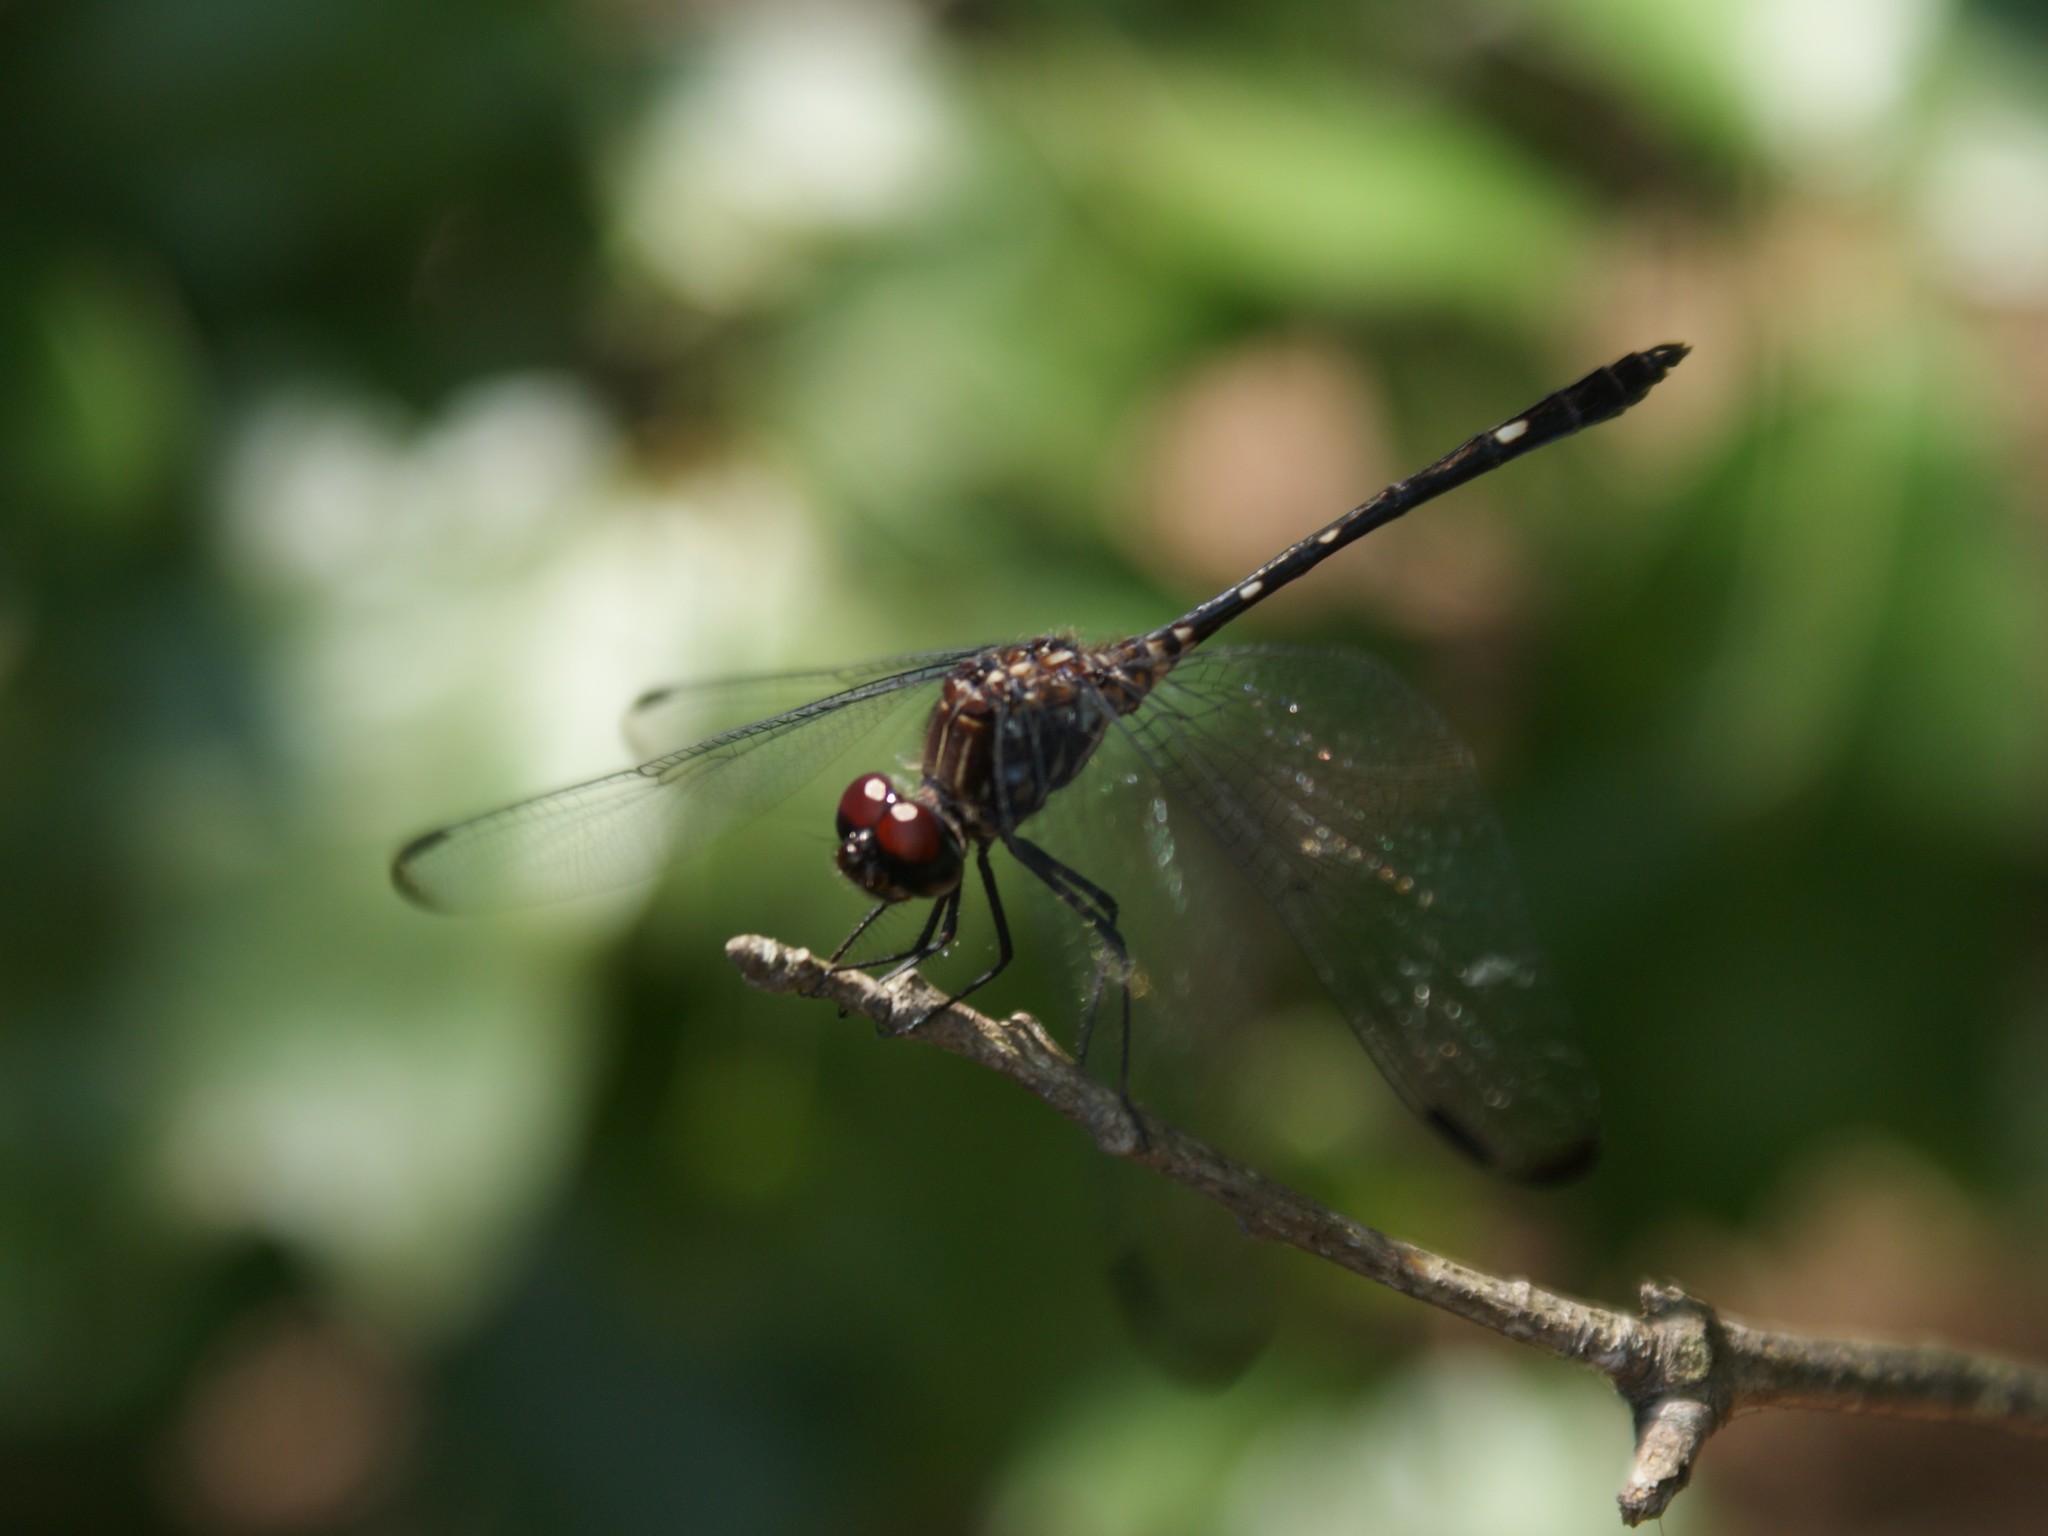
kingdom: Animalia
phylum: Arthropoda
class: Insecta
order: Odonata
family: Libellulidae
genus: Dythemis
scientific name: Dythemis velox
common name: Swift setwing
